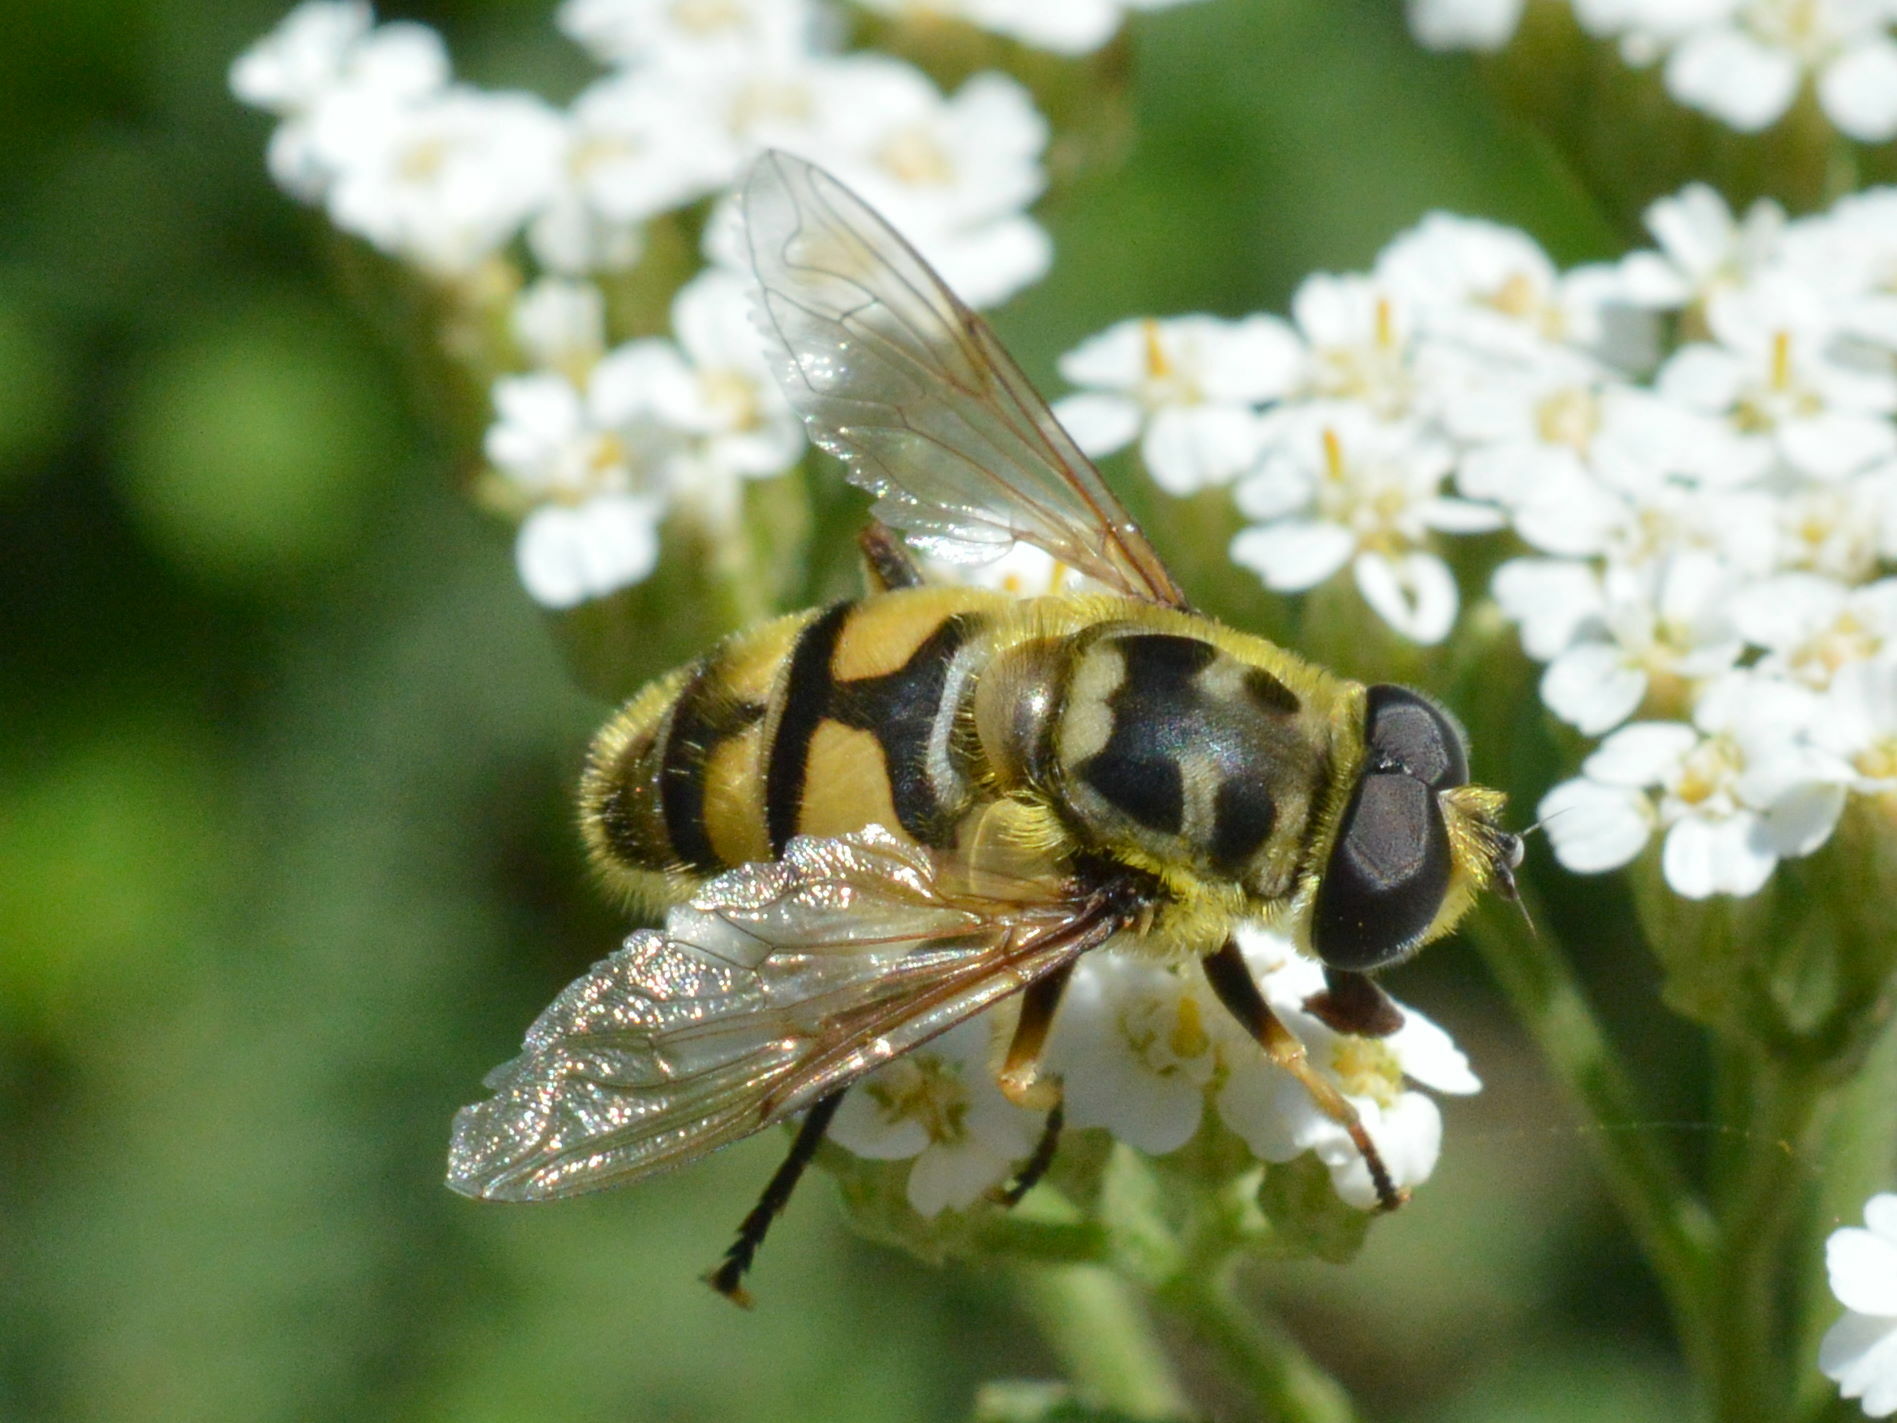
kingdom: Animalia
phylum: Arthropoda
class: Insecta
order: Diptera
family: Syrphidae
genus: Myathropa
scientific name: Myathropa florea
